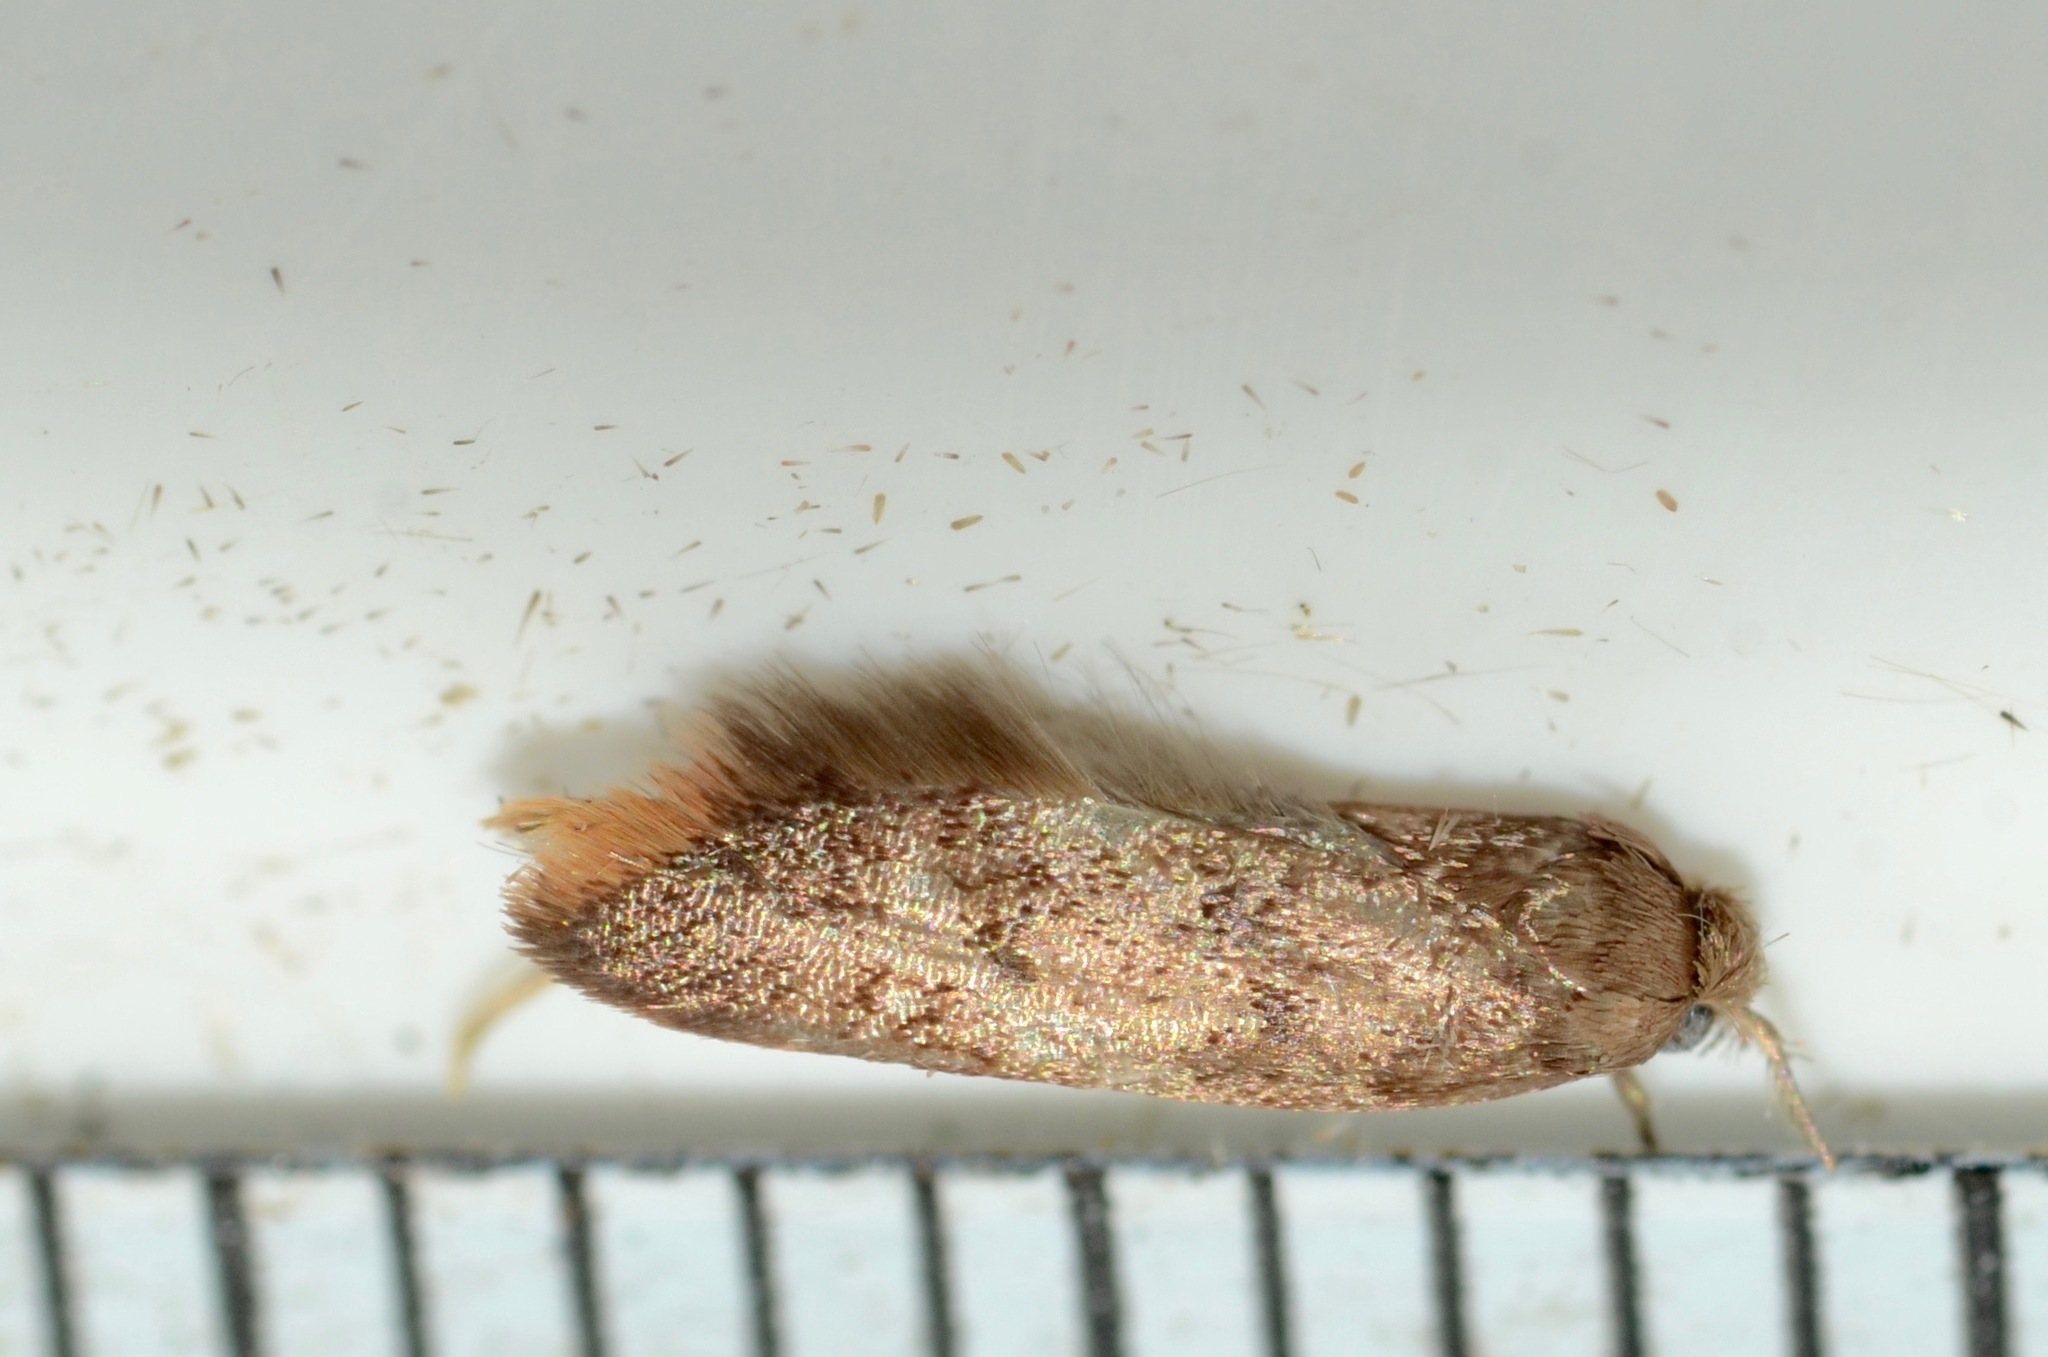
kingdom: Animalia
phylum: Arthropoda
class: Insecta
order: Lepidoptera
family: Oecophoridae
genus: Tachystola
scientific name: Tachystola acroxantha
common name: Ruddy streak
